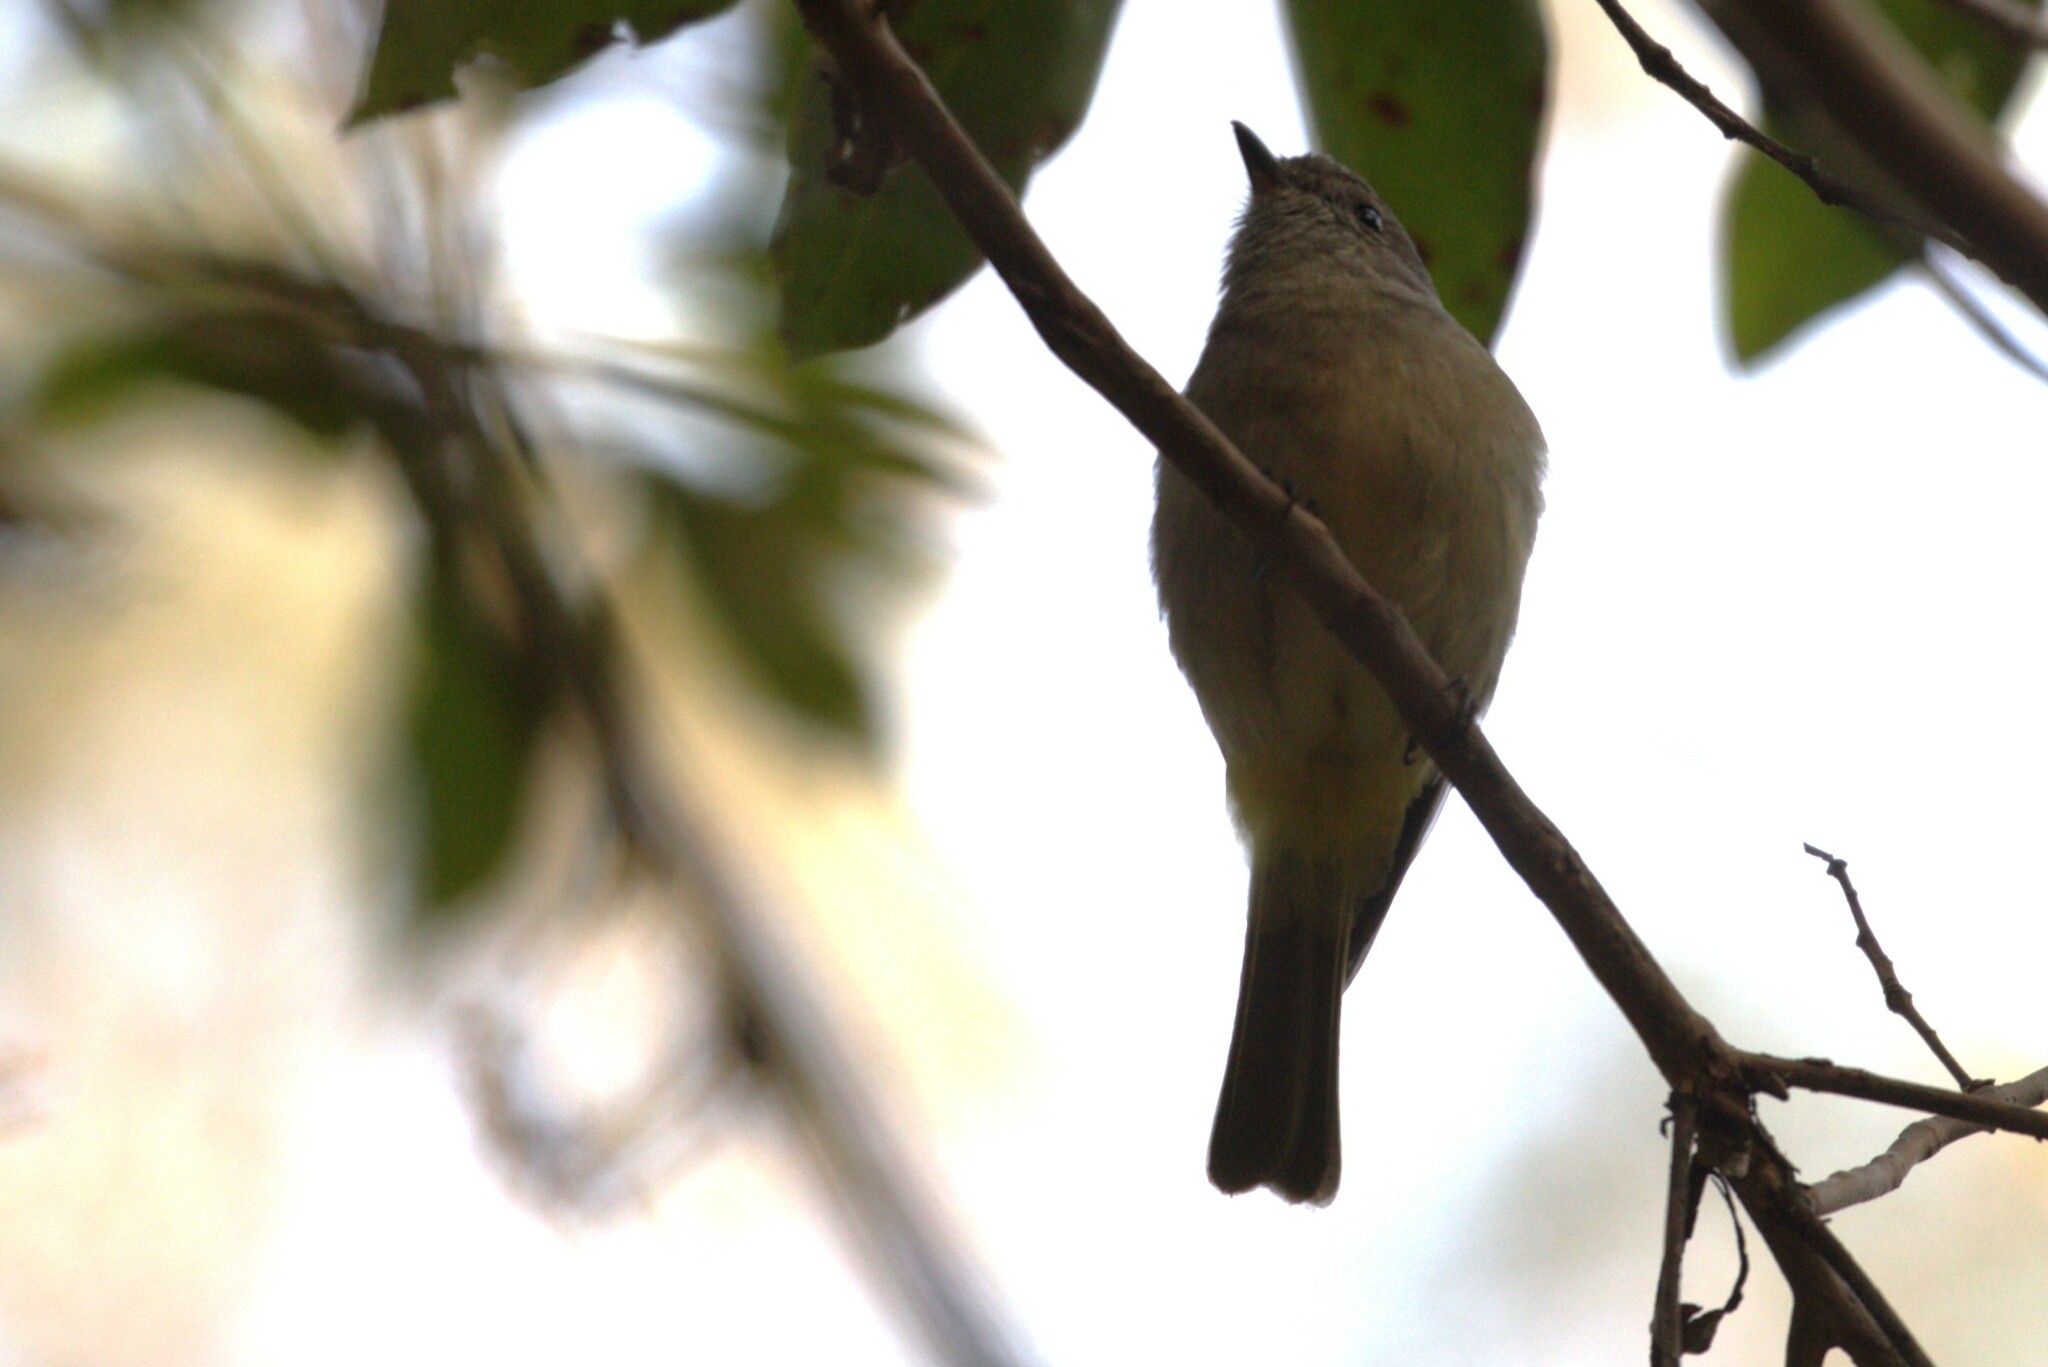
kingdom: Animalia
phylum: Chordata
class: Aves
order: Passeriformes
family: Pachycephalidae
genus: Pachycephala
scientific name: Pachycephala pectoralis
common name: Australian golden whistler
